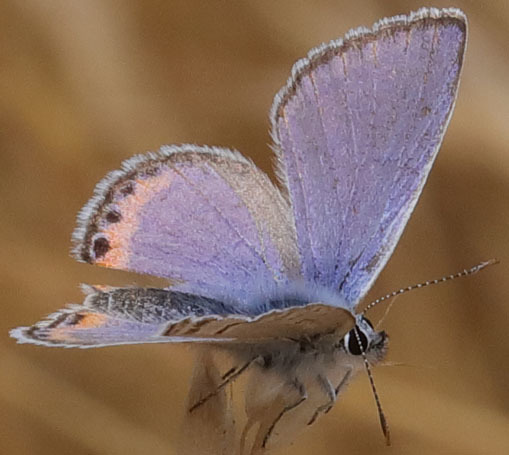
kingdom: Animalia
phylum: Arthropoda
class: Insecta
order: Lepidoptera
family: Lycaenidae
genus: Icaricia
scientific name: Icaricia acmon
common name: Acmon blue
